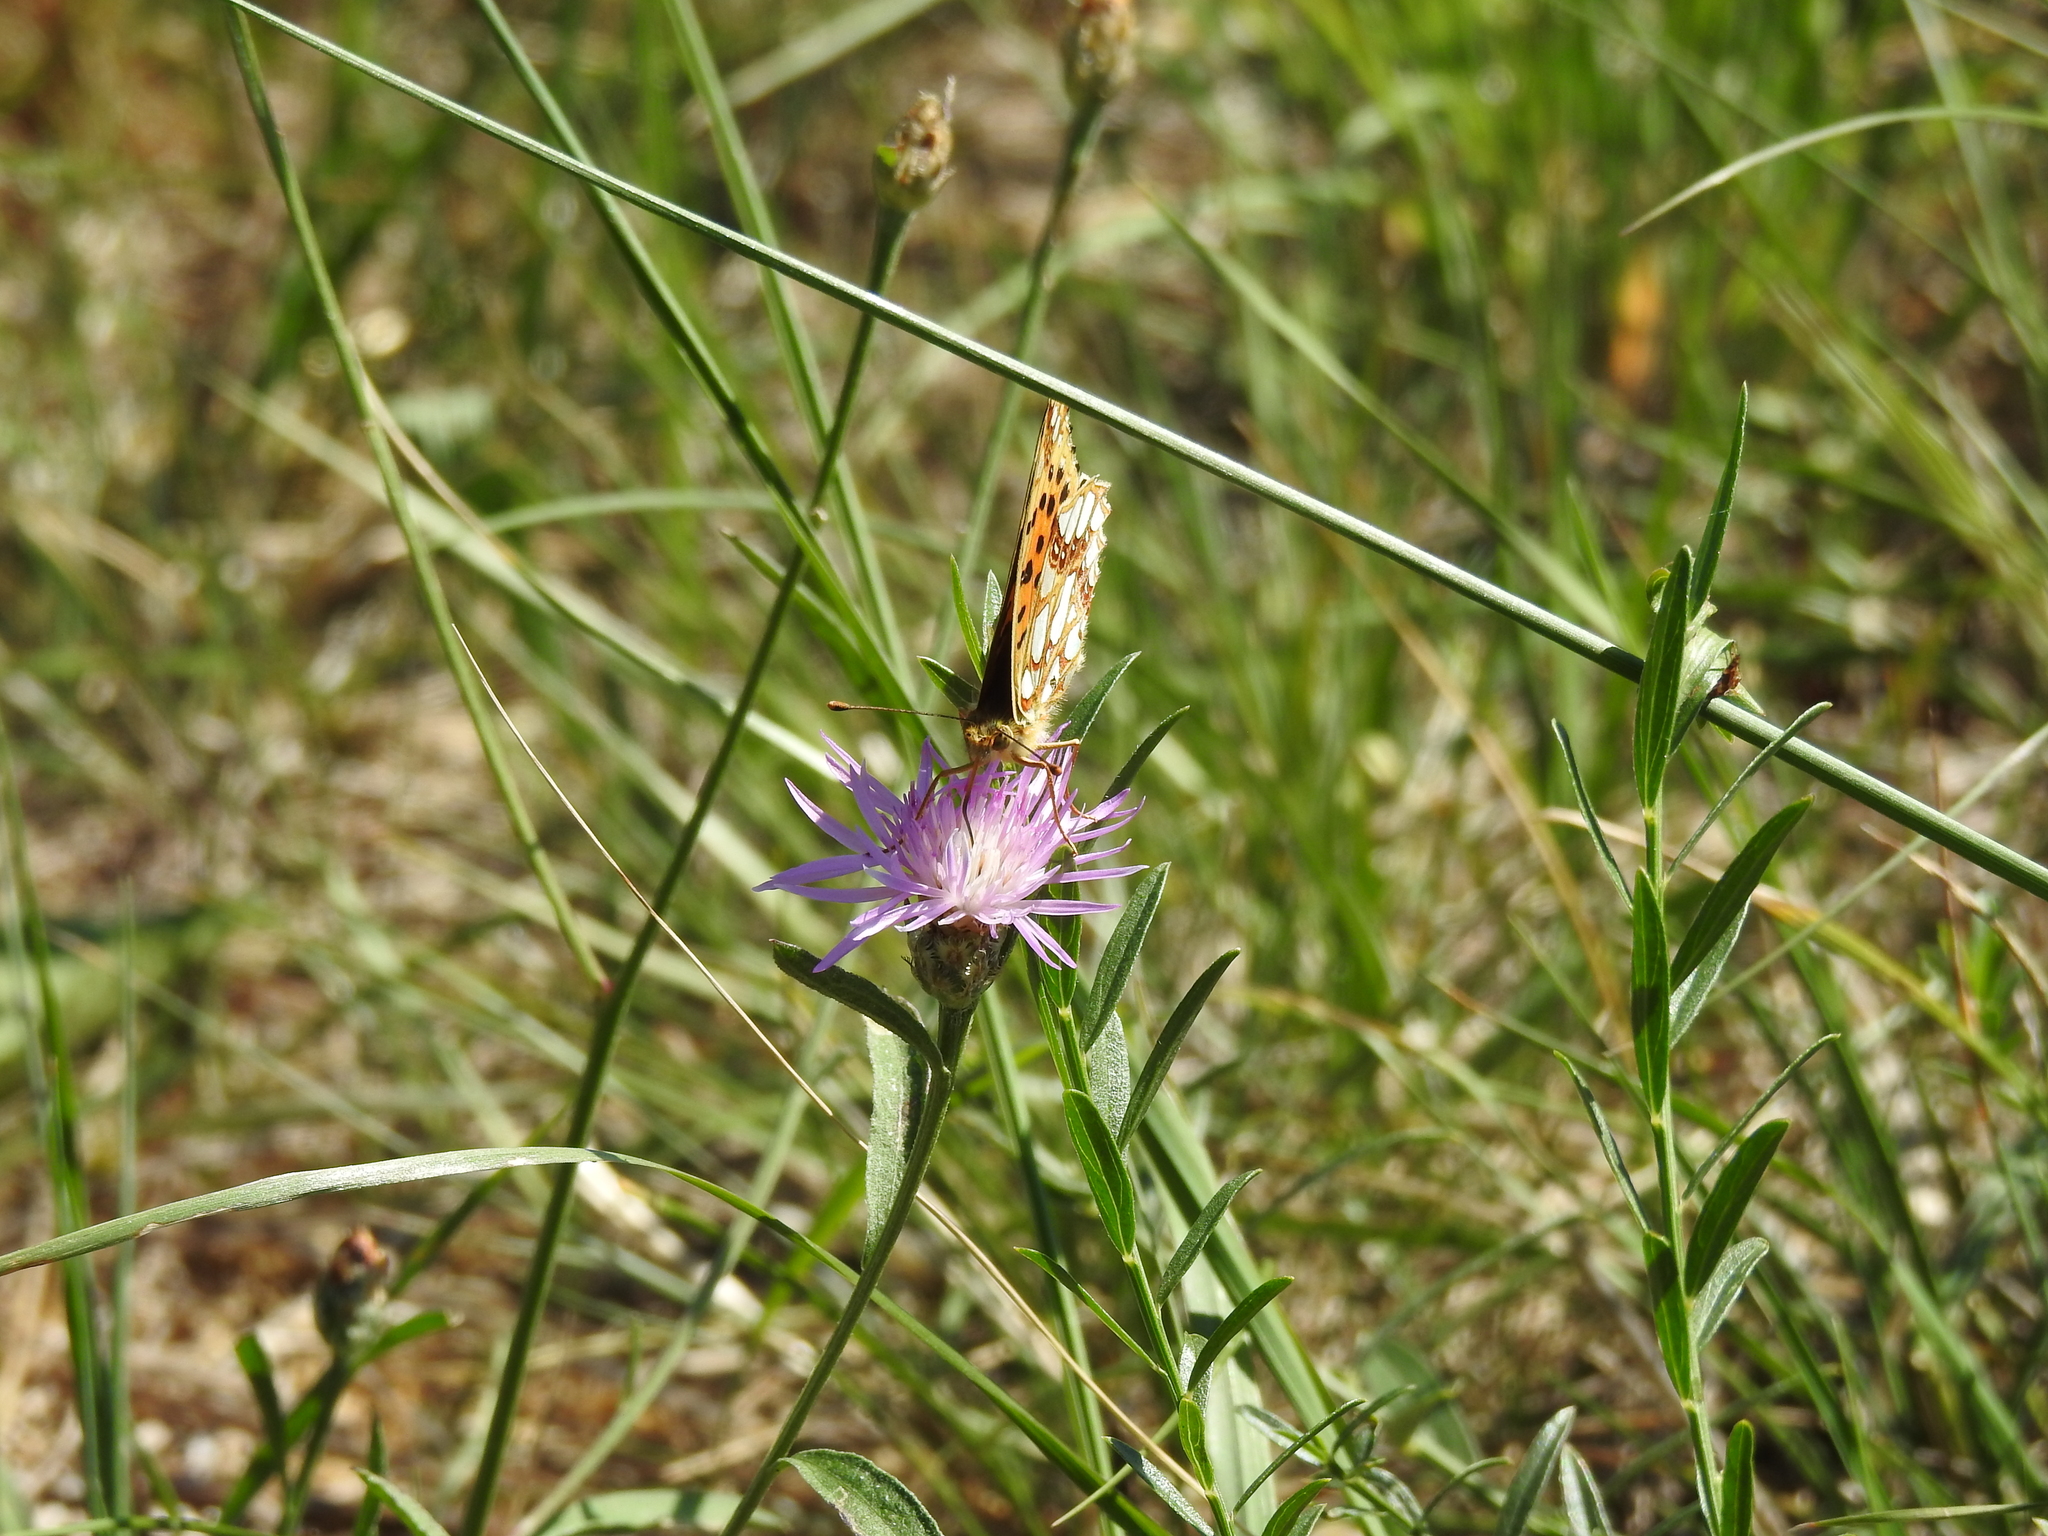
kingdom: Animalia
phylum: Arthropoda
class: Insecta
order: Lepidoptera
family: Nymphalidae
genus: Issoria
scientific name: Issoria lathonia
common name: Queen of spain fritillary
